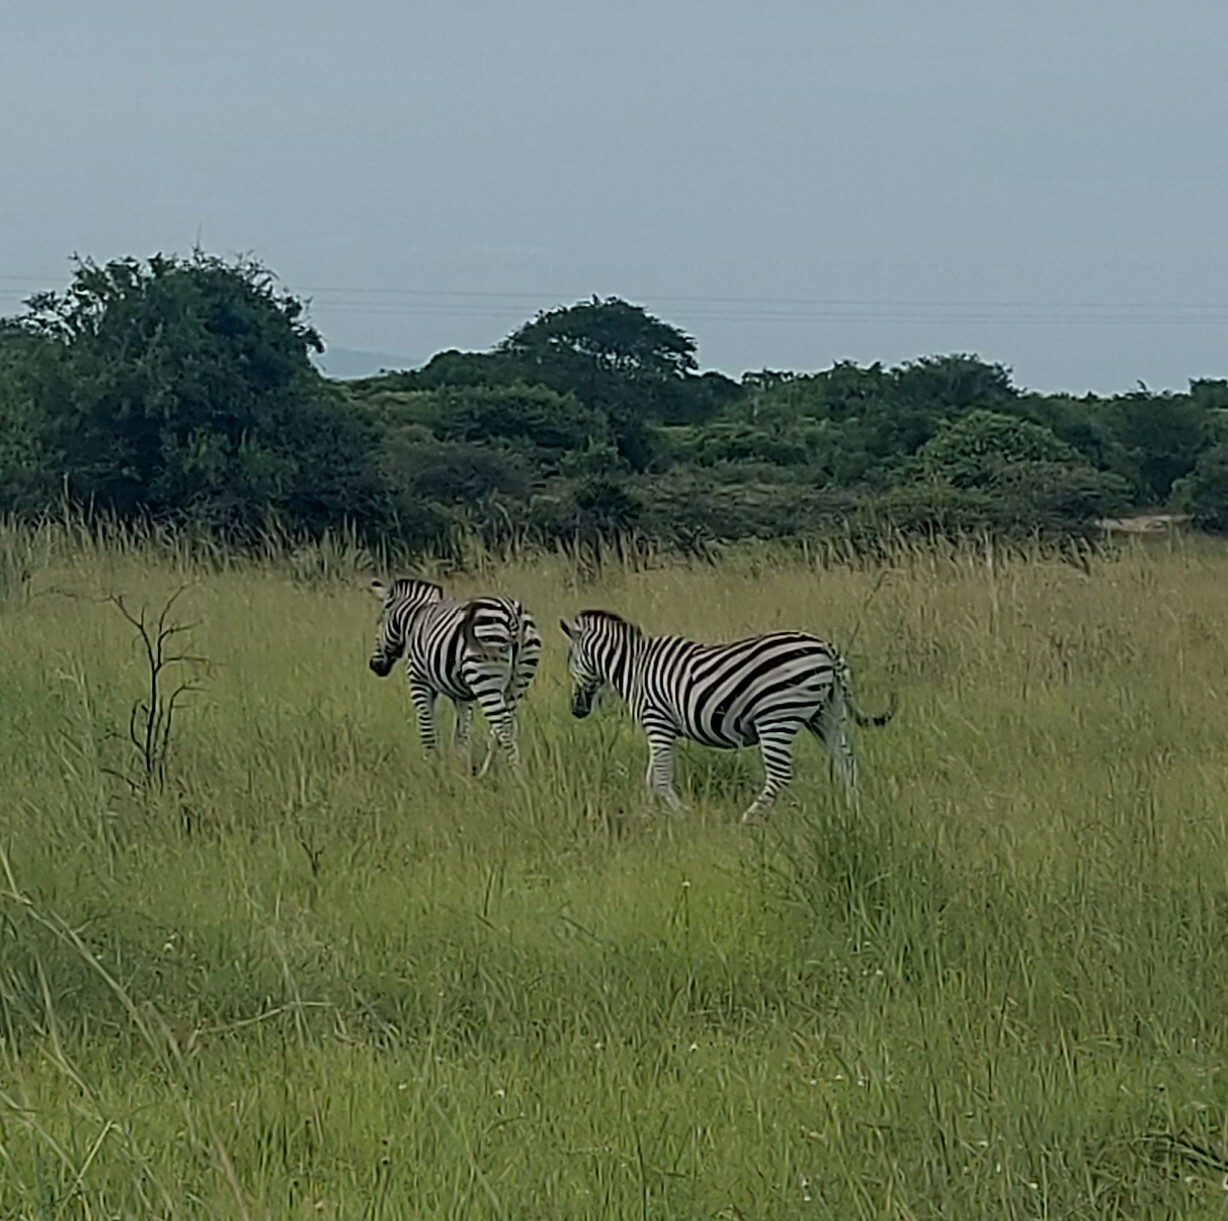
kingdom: Animalia
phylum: Chordata
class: Mammalia
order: Perissodactyla
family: Equidae
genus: Equus
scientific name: Equus quagga
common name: Plains zebra
